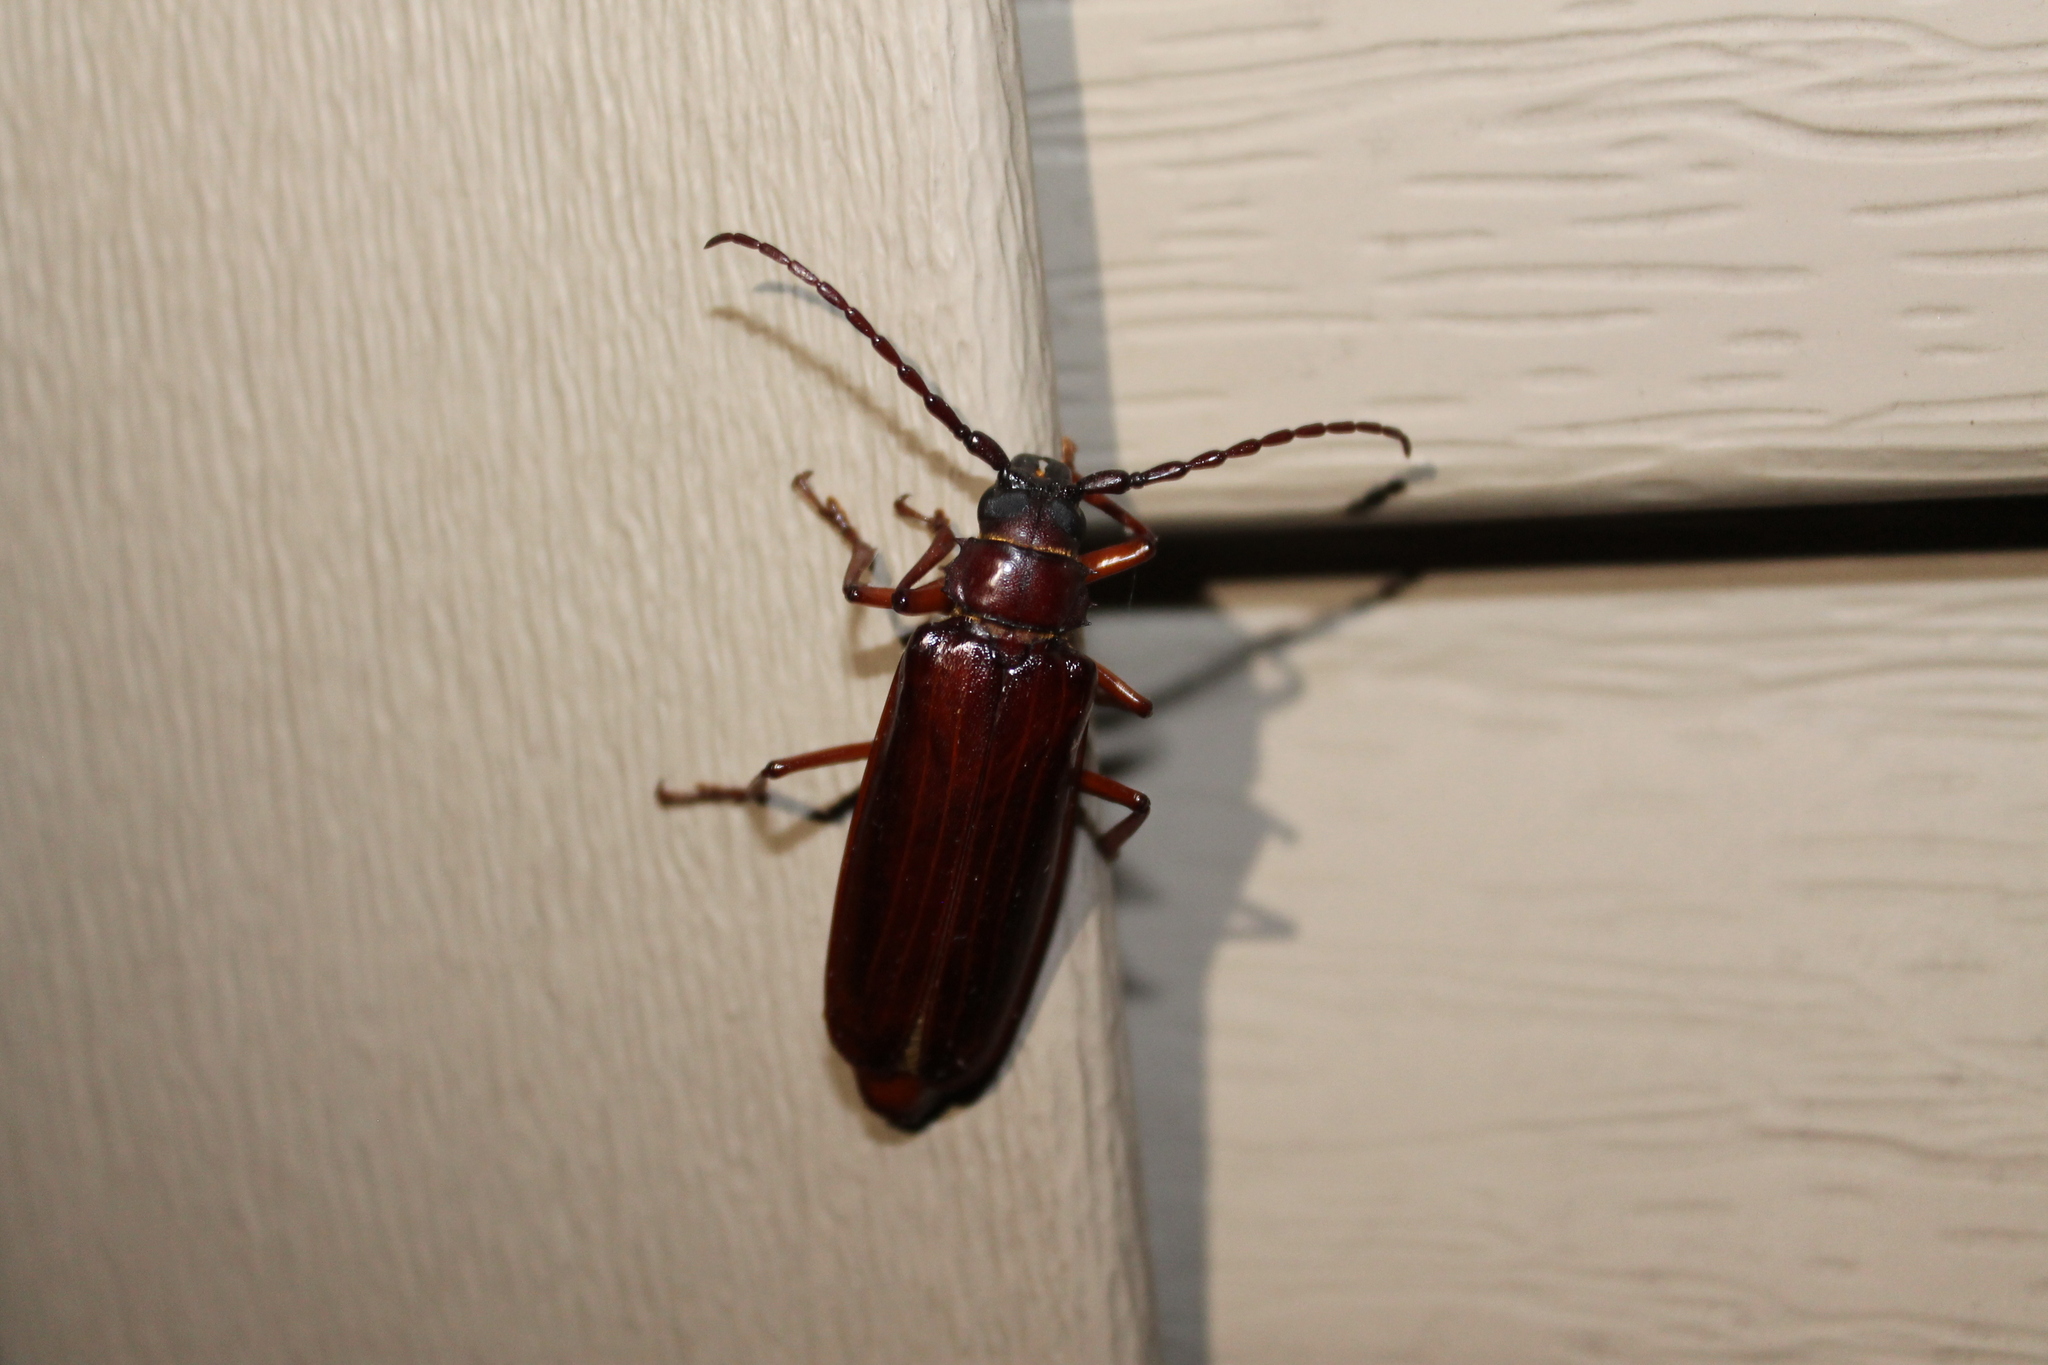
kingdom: Animalia
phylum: Arthropoda
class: Insecta
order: Coleoptera
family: Cerambycidae
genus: Orthosoma
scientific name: Orthosoma brunneum
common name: Brown prionid beetle
